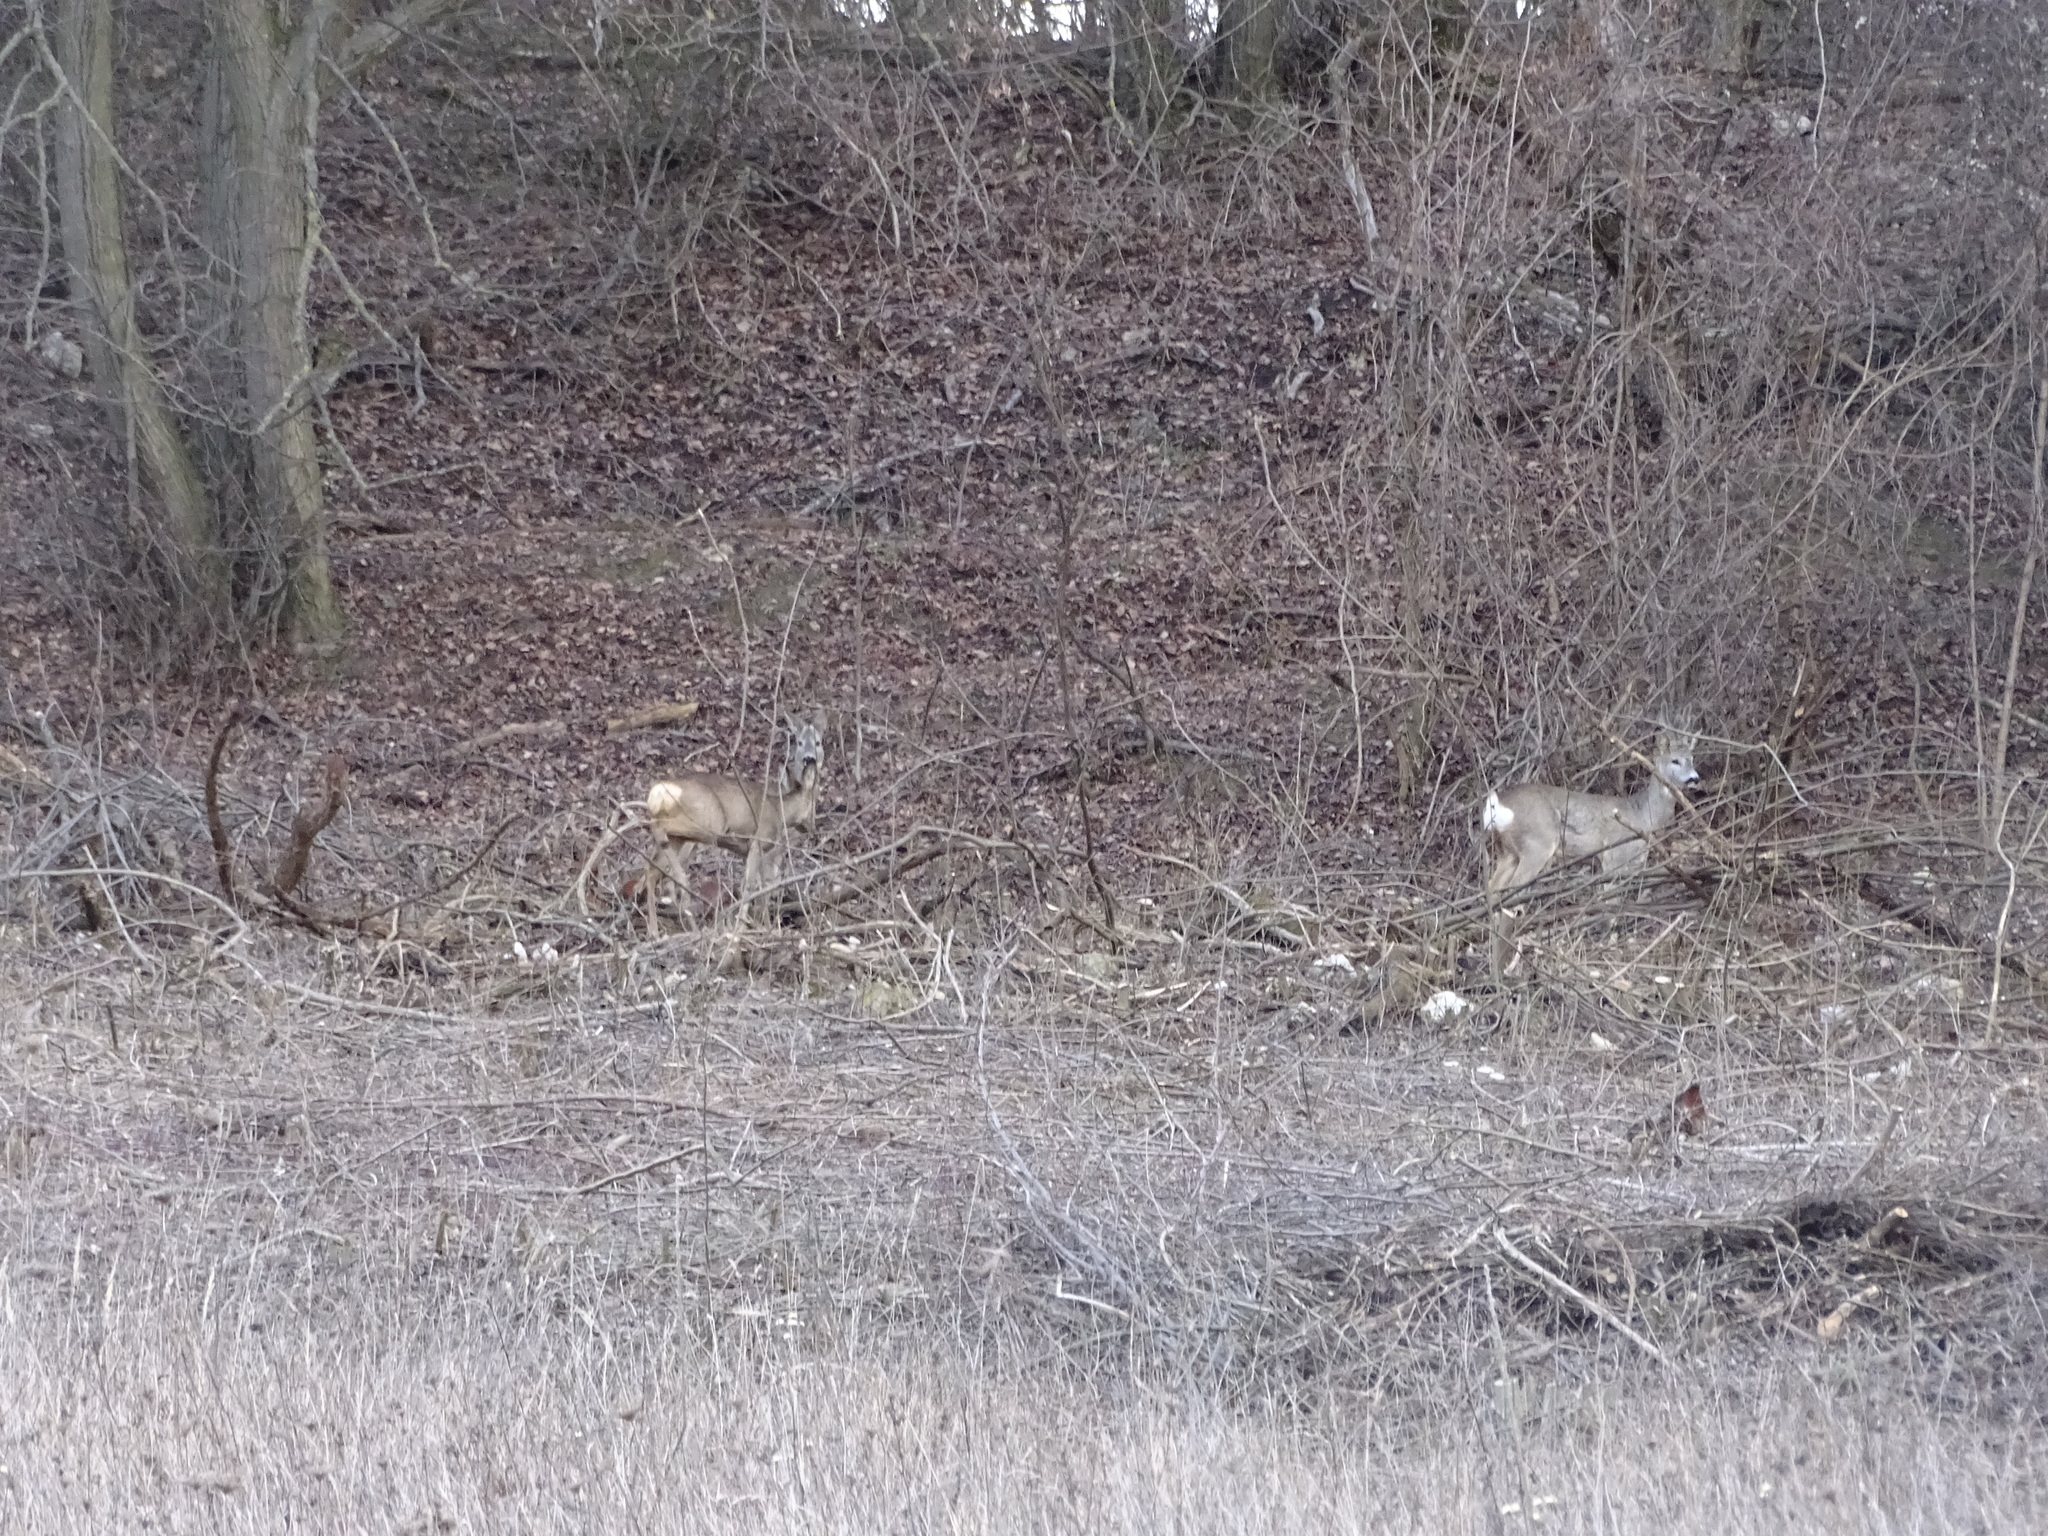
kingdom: Animalia
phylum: Chordata
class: Mammalia
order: Artiodactyla
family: Cervidae
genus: Capreolus
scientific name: Capreolus capreolus
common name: Western roe deer
